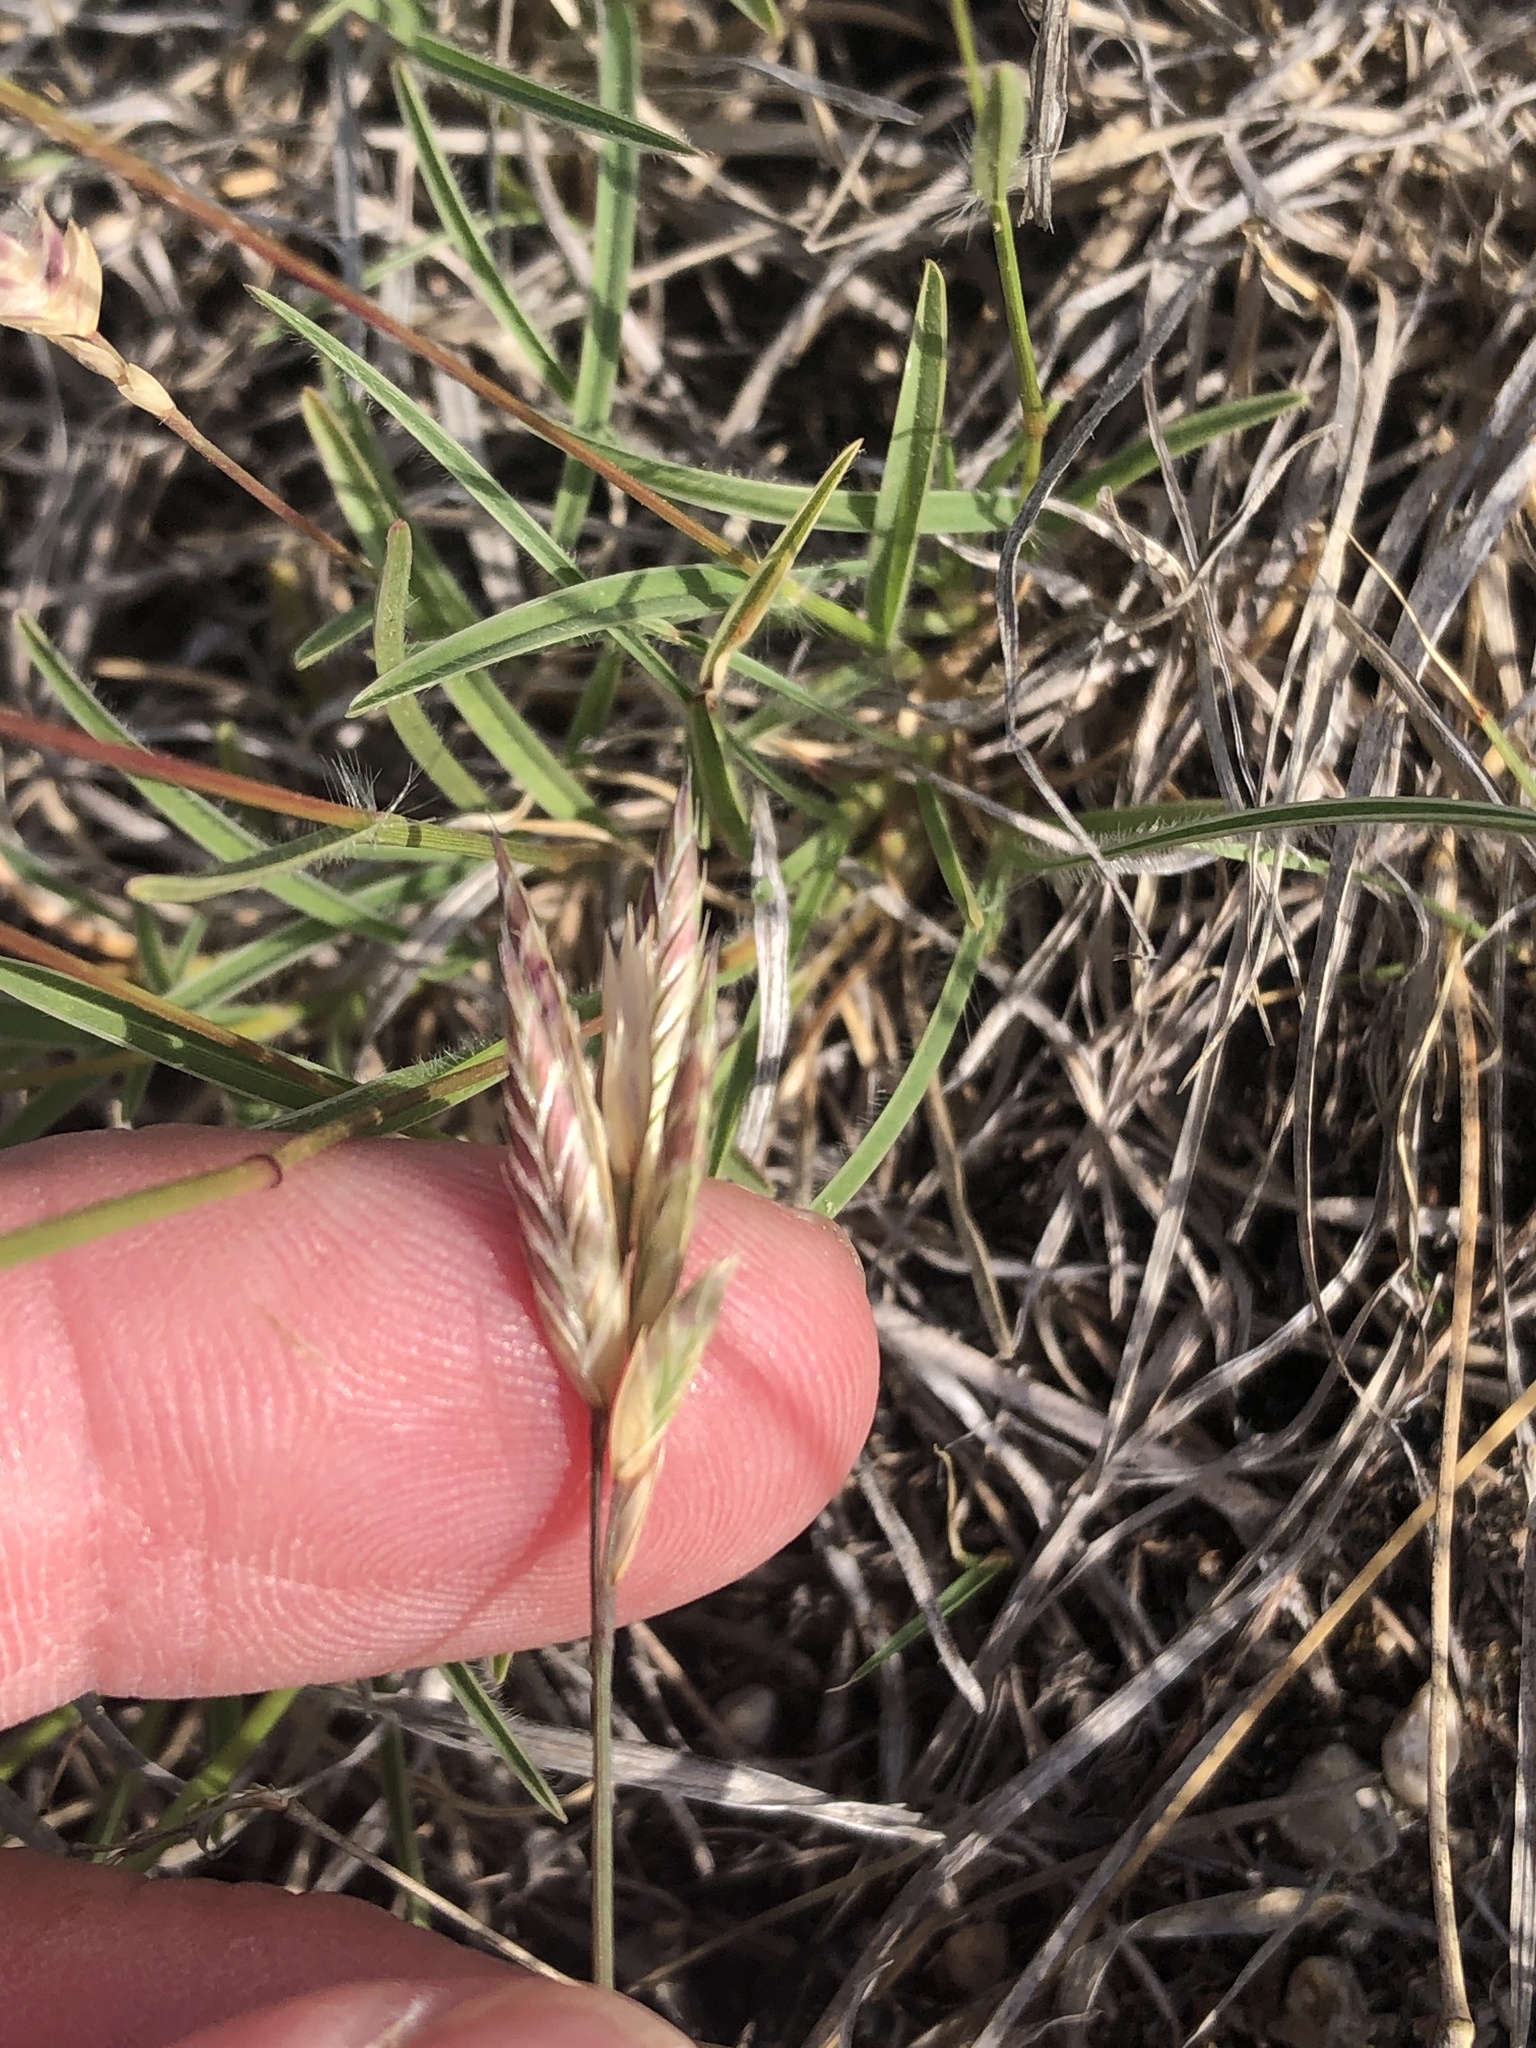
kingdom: Plantae
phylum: Tracheophyta
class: Liliopsida
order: Poales
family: Poaceae
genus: Erioneuron
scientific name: Erioneuron pilosum
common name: Hairy woolly grass
